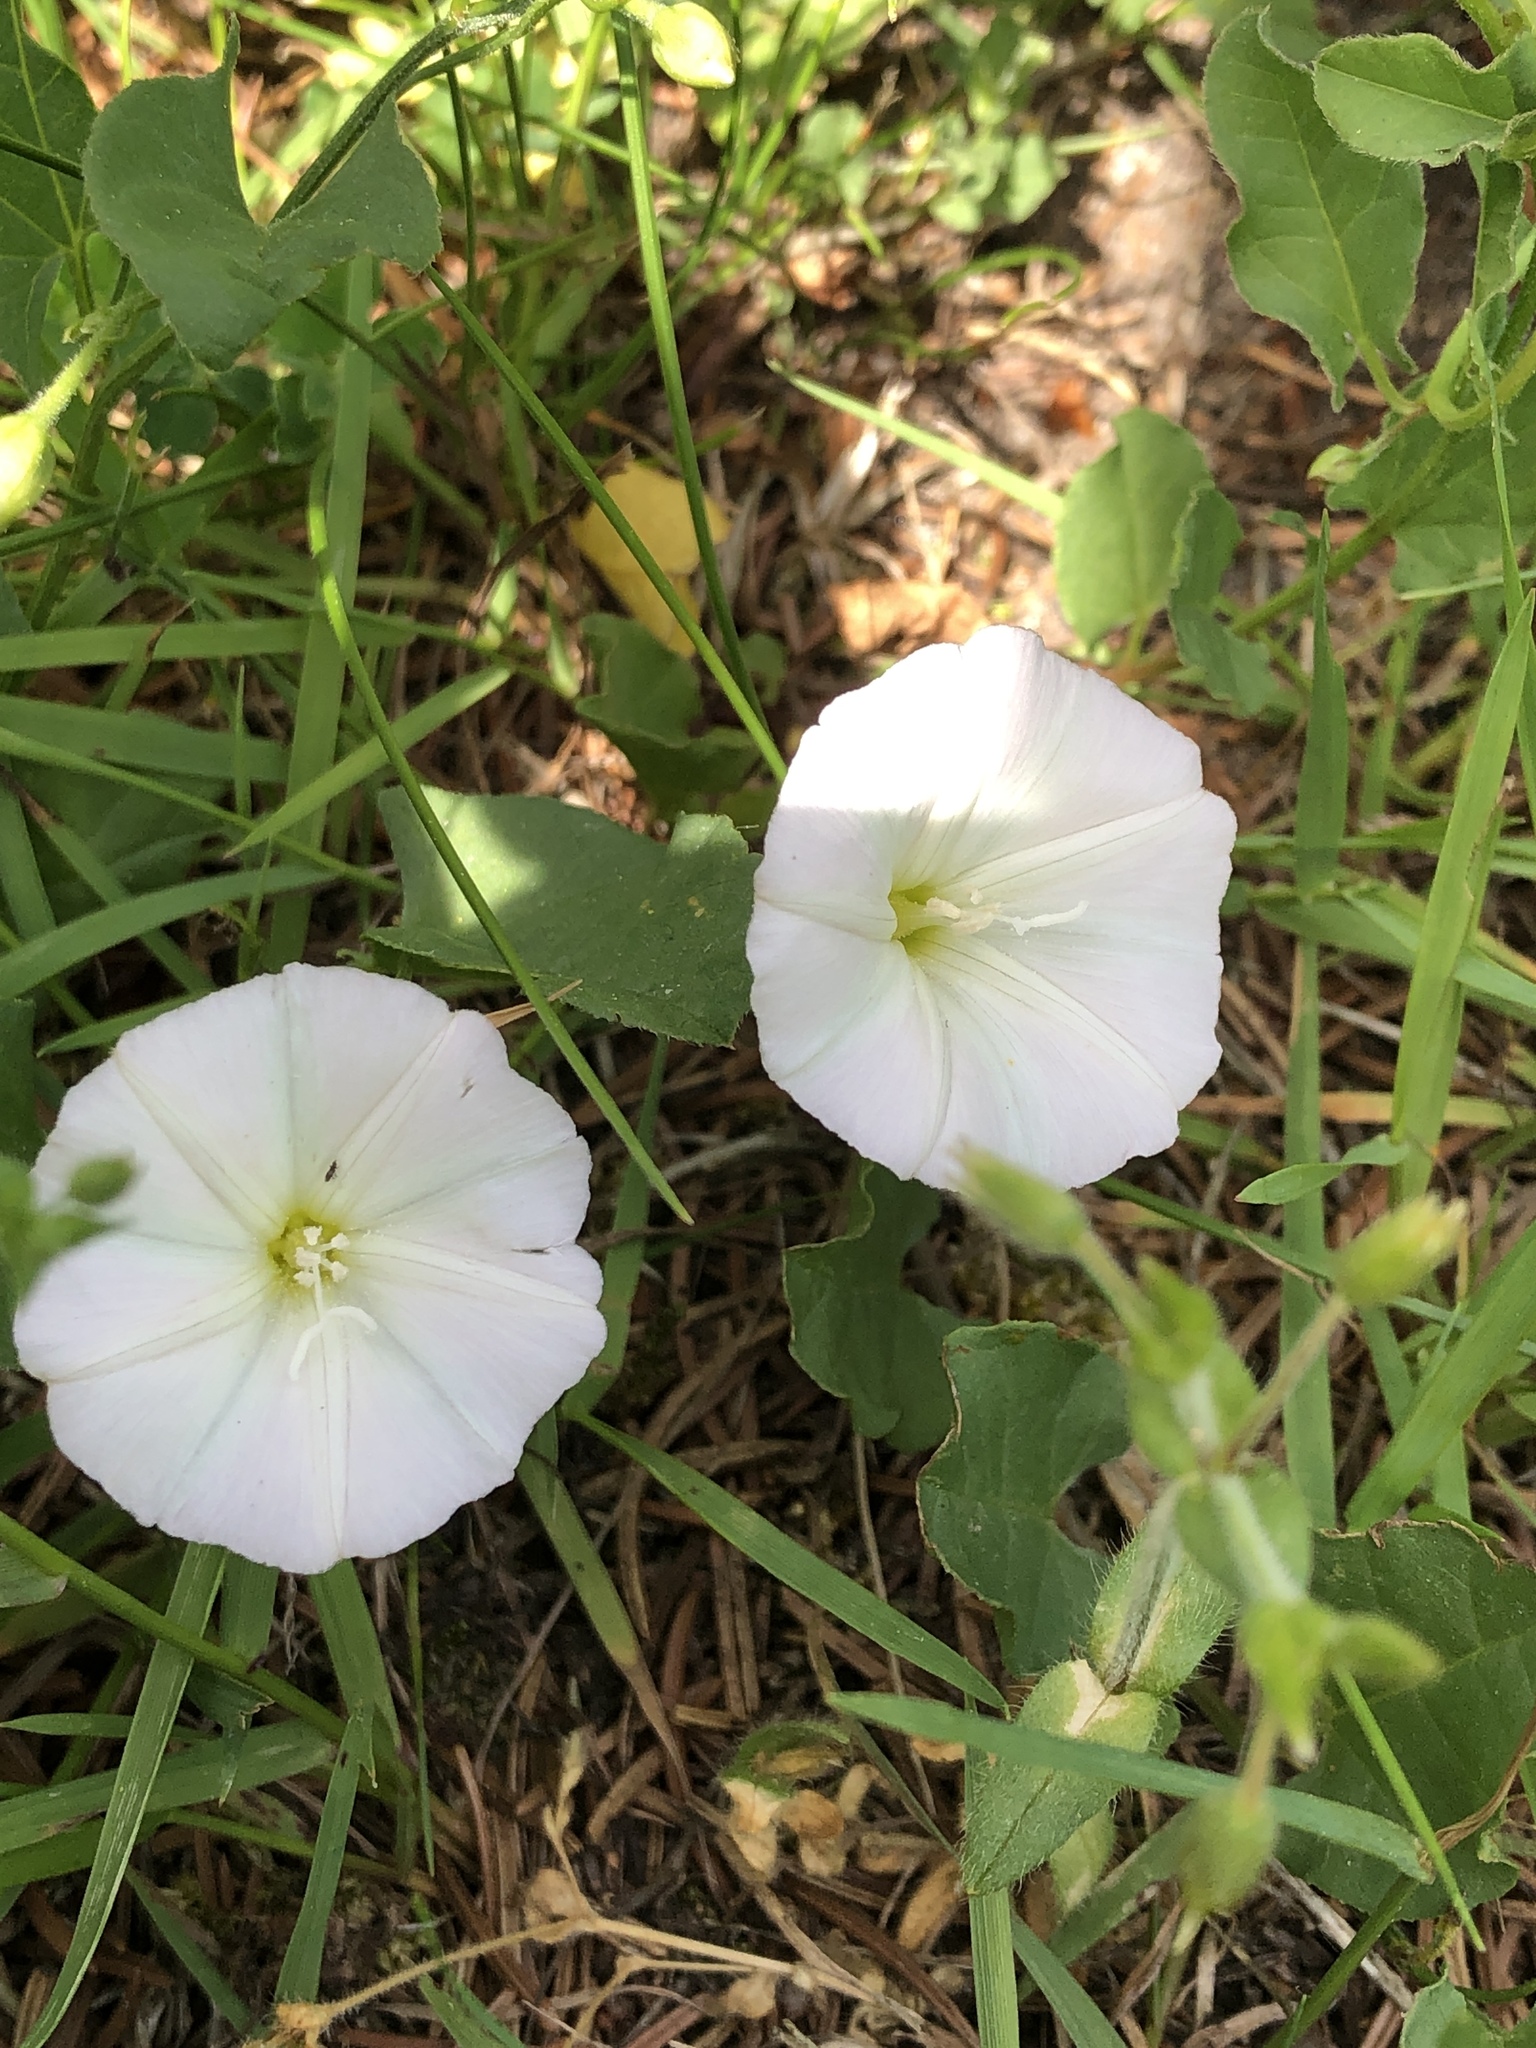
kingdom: Plantae
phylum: Tracheophyta
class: Magnoliopsida
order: Solanales
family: Convolvulaceae
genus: Convolvulus
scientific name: Convolvulus arvensis
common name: Field bindweed
